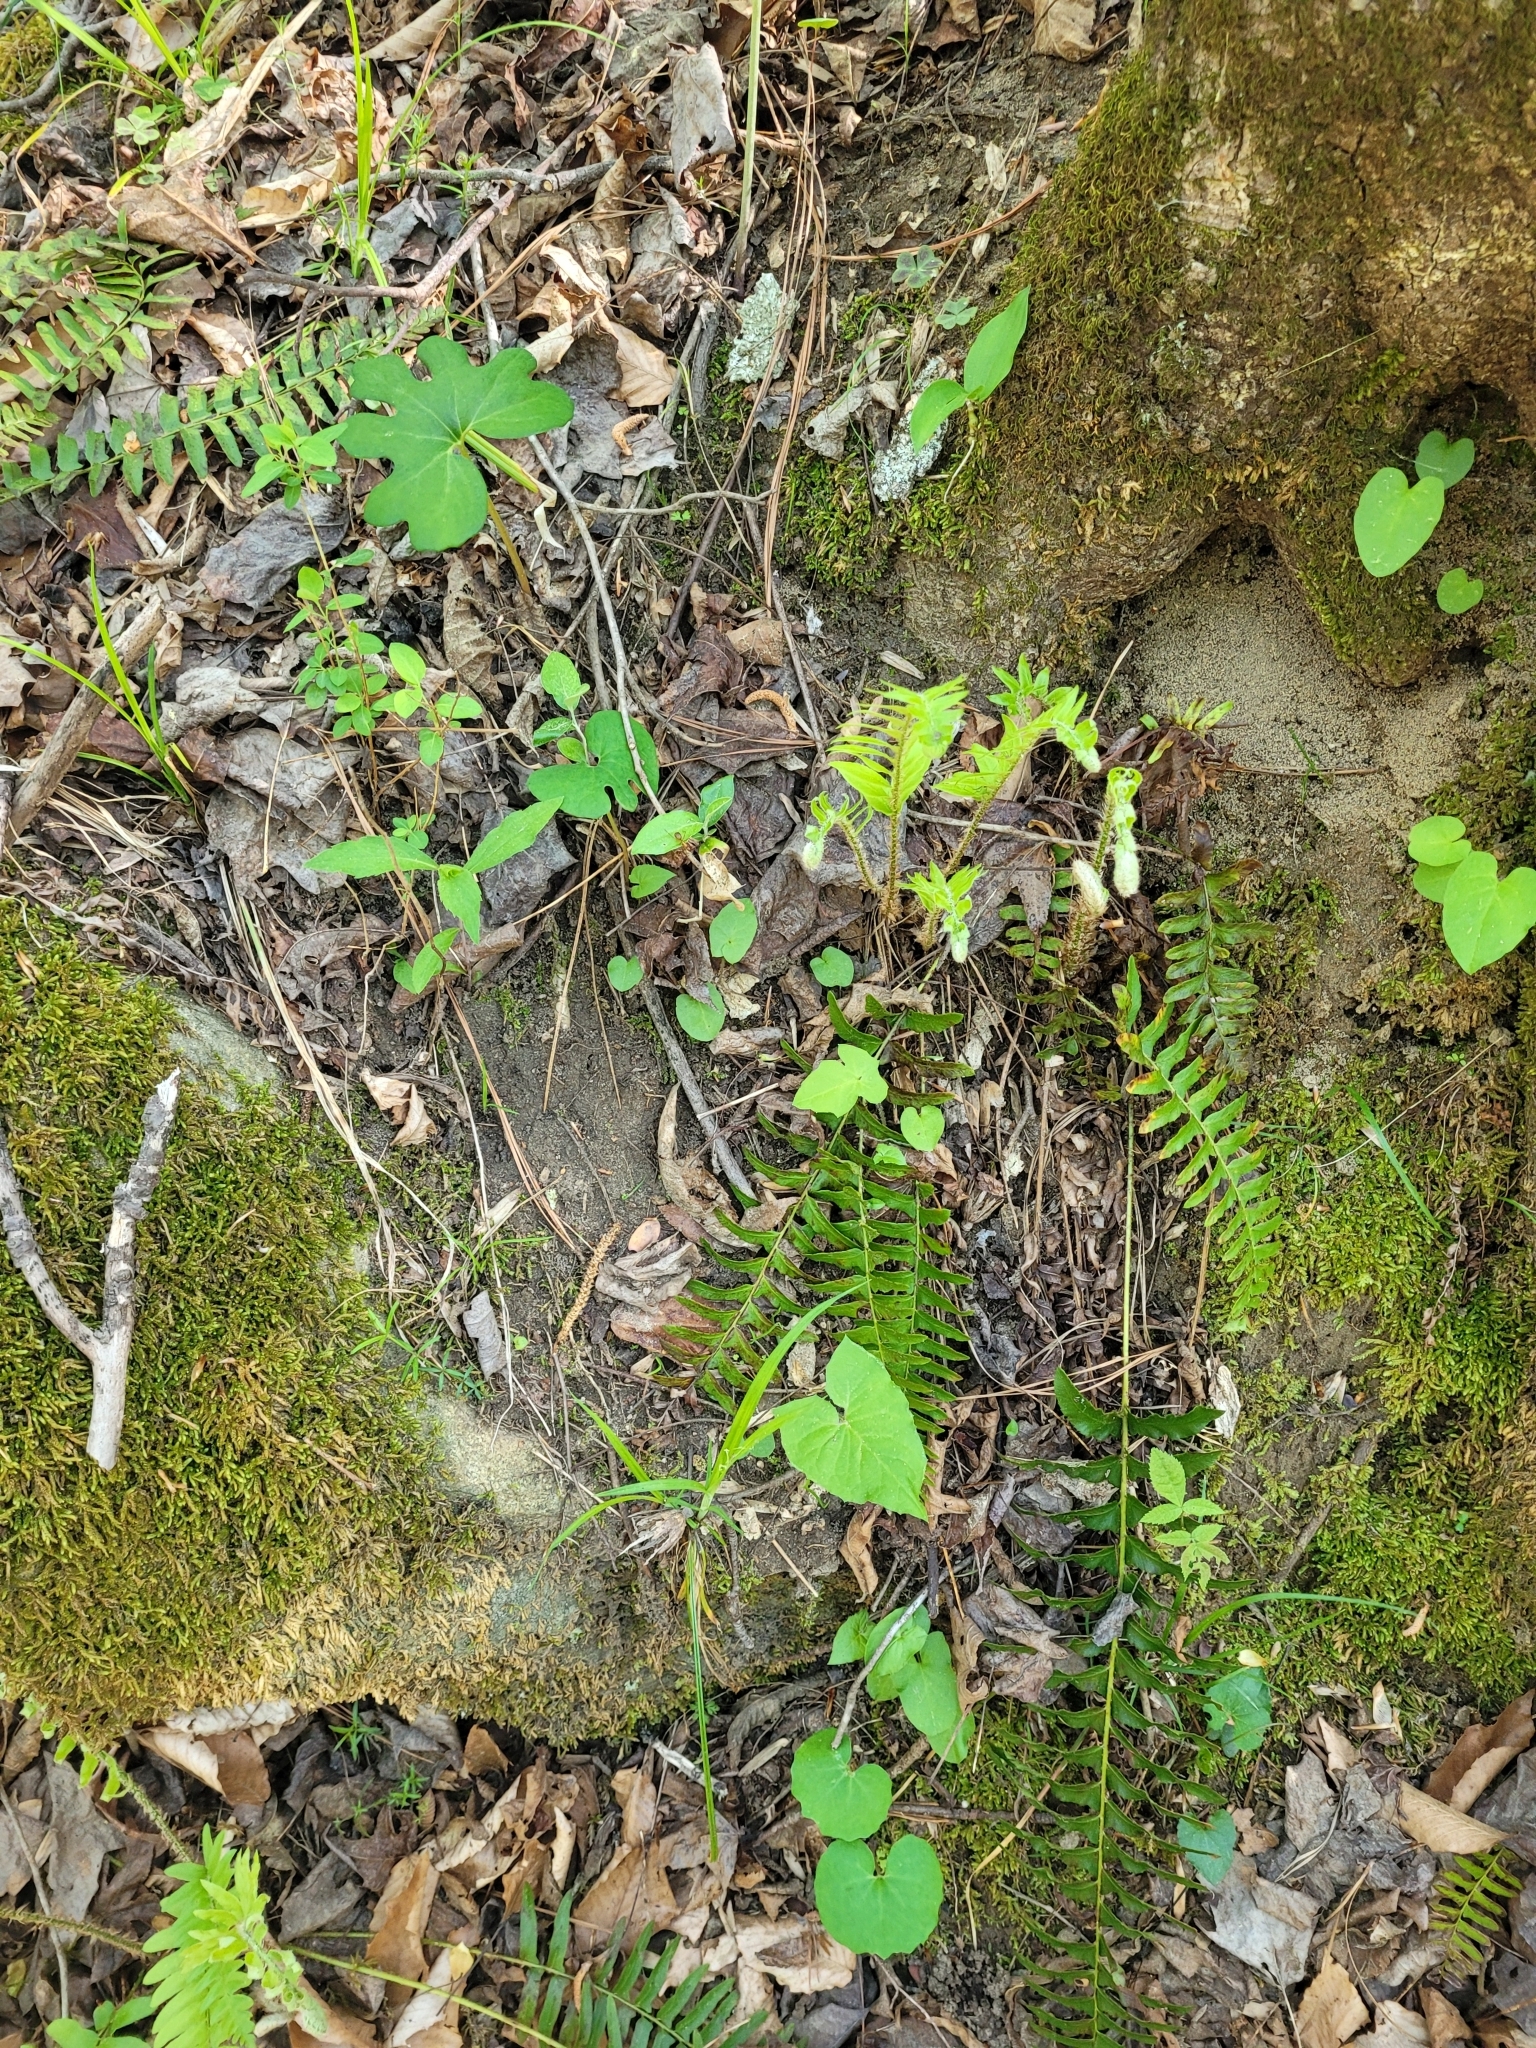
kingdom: Plantae
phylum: Tracheophyta
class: Magnoliopsida
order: Ranunculales
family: Papaveraceae
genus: Sanguinaria
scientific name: Sanguinaria canadensis
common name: Bloodroot
